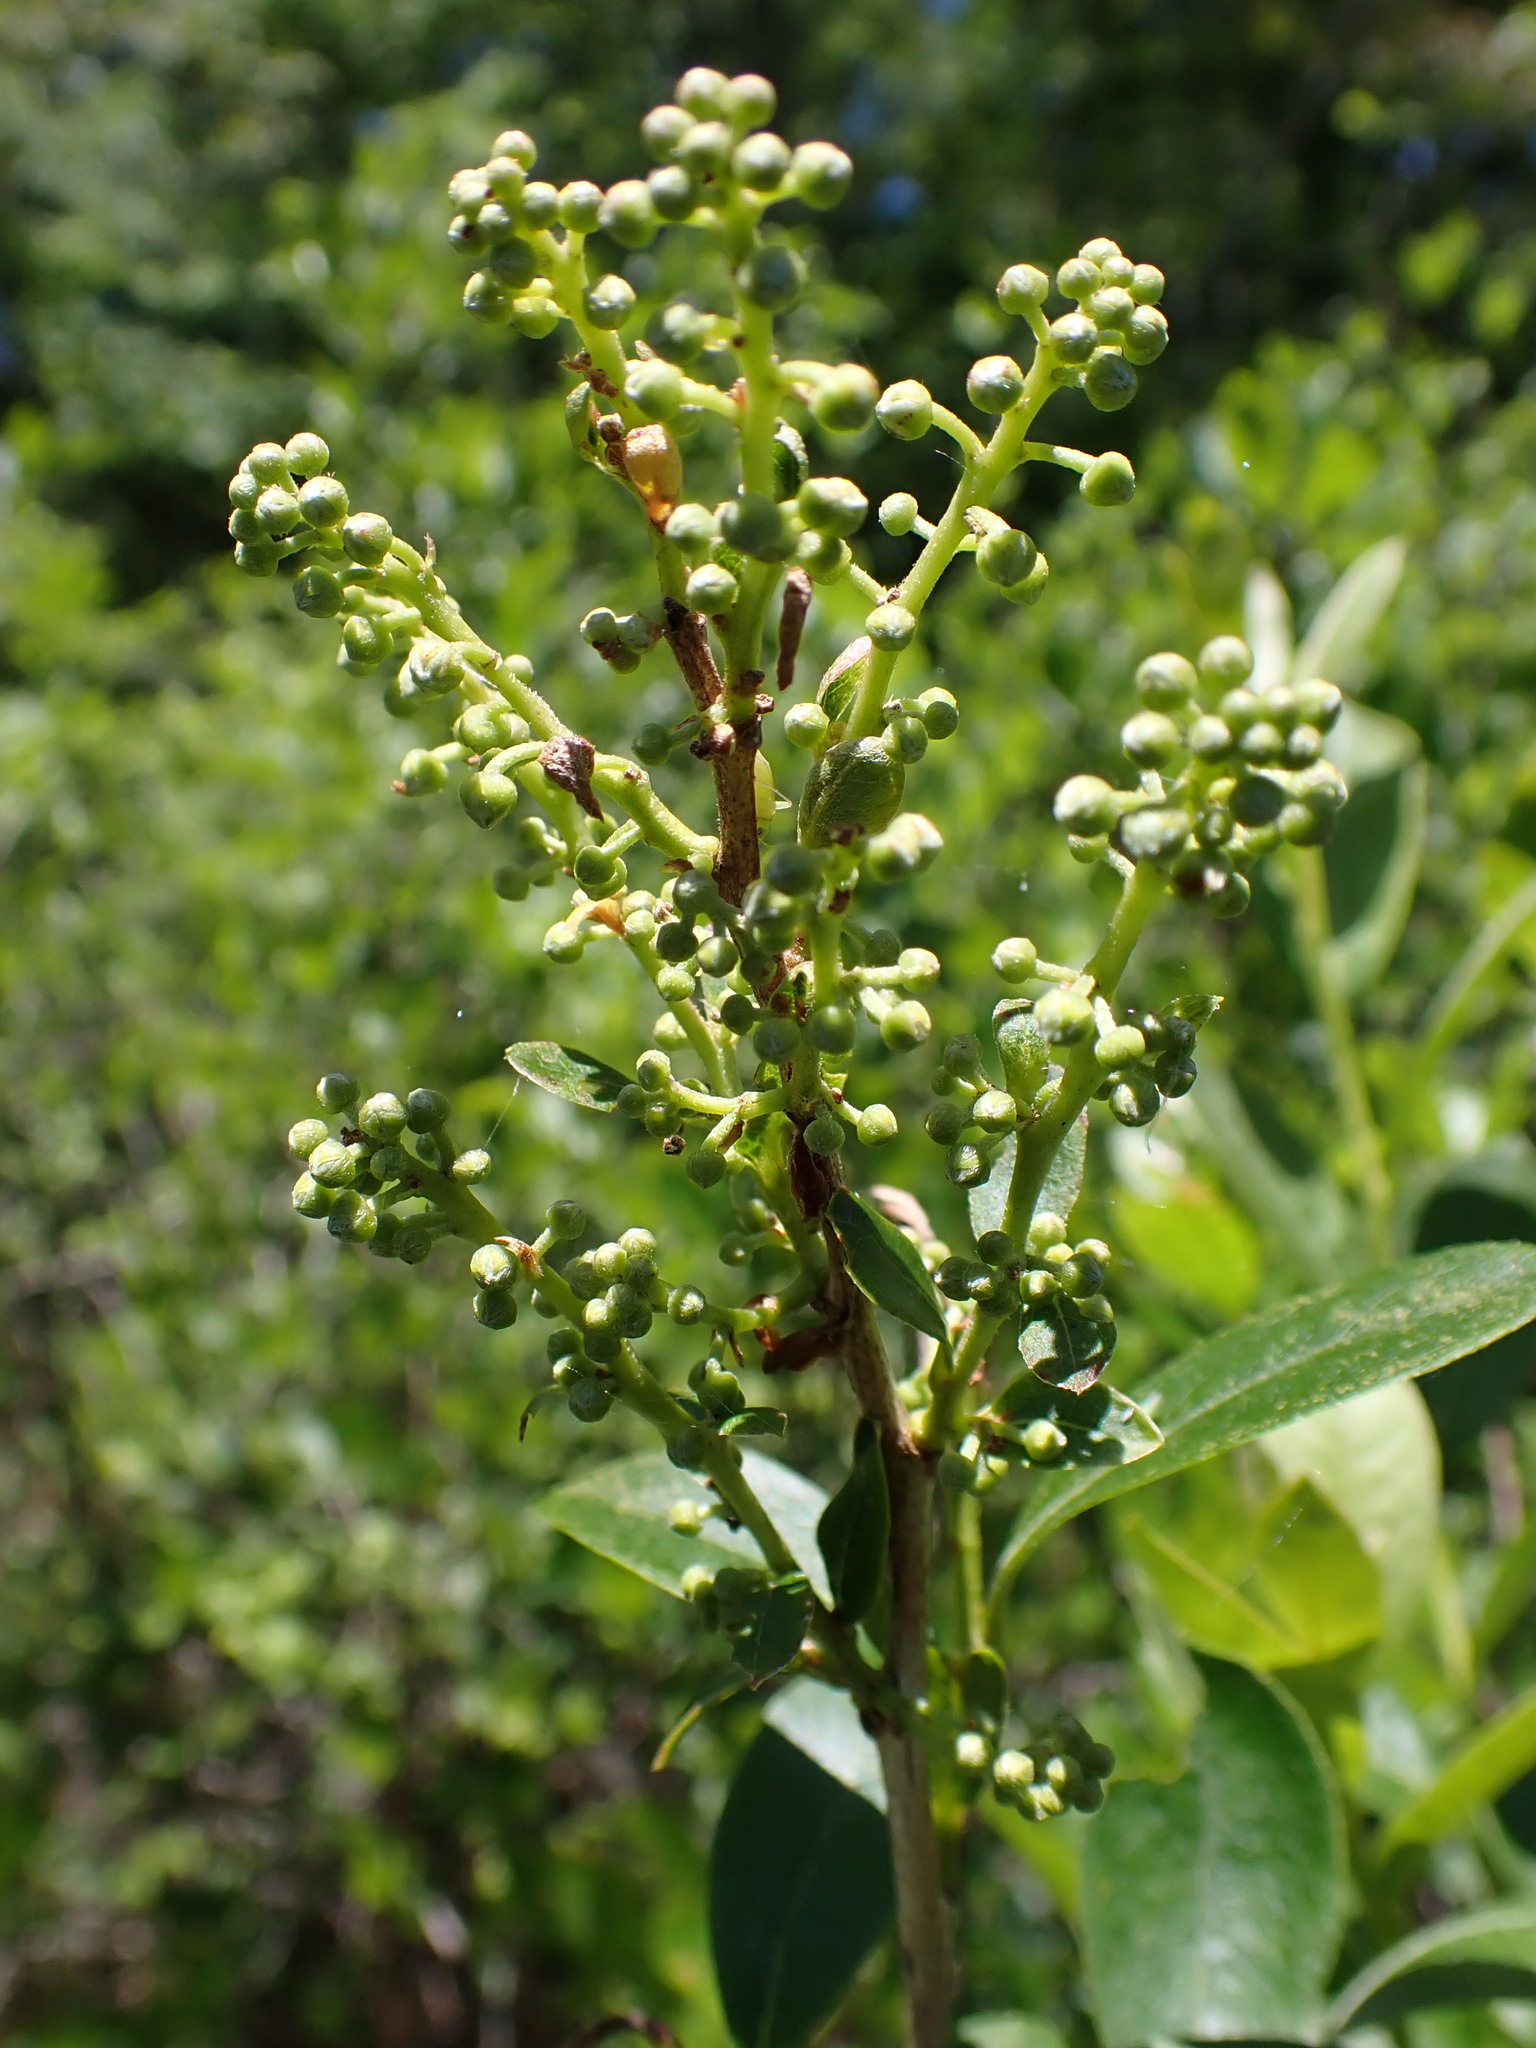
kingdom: Plantae
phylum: Tracheophyta
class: Magnoliopsida
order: Ericales
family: Ericaceae
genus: Lyonia
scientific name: Lyonia ligustrina
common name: Maleberry
